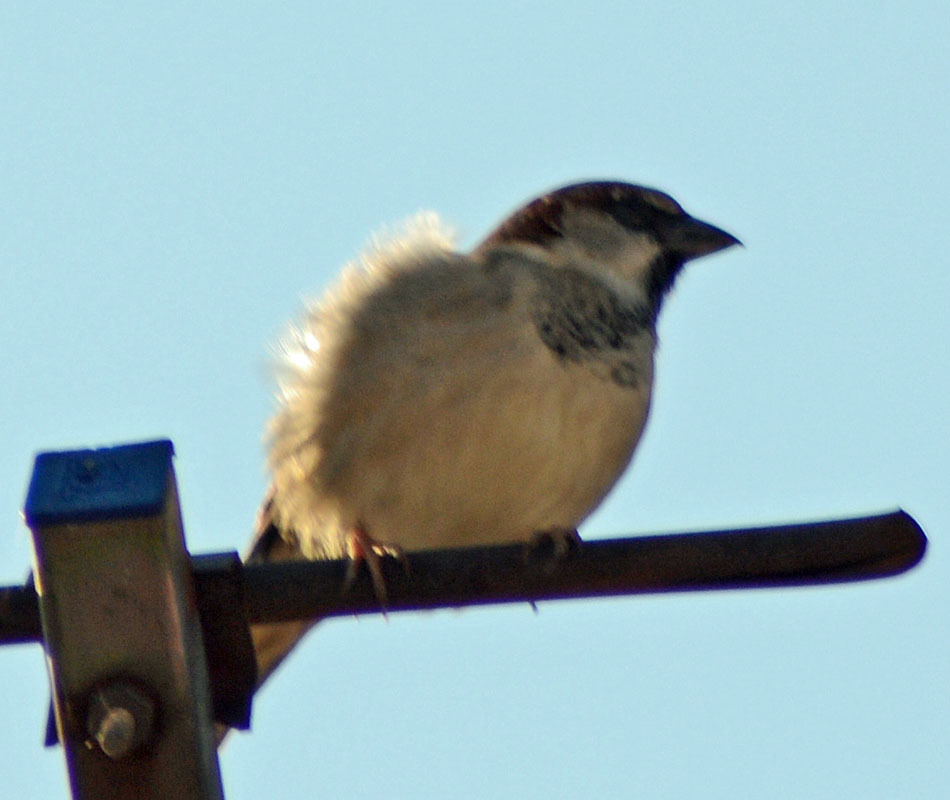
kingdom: Animalia
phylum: Chordata
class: Aves
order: Passeriformes
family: Passeridae
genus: Passer
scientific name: Passer domesticus
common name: House sparrow
